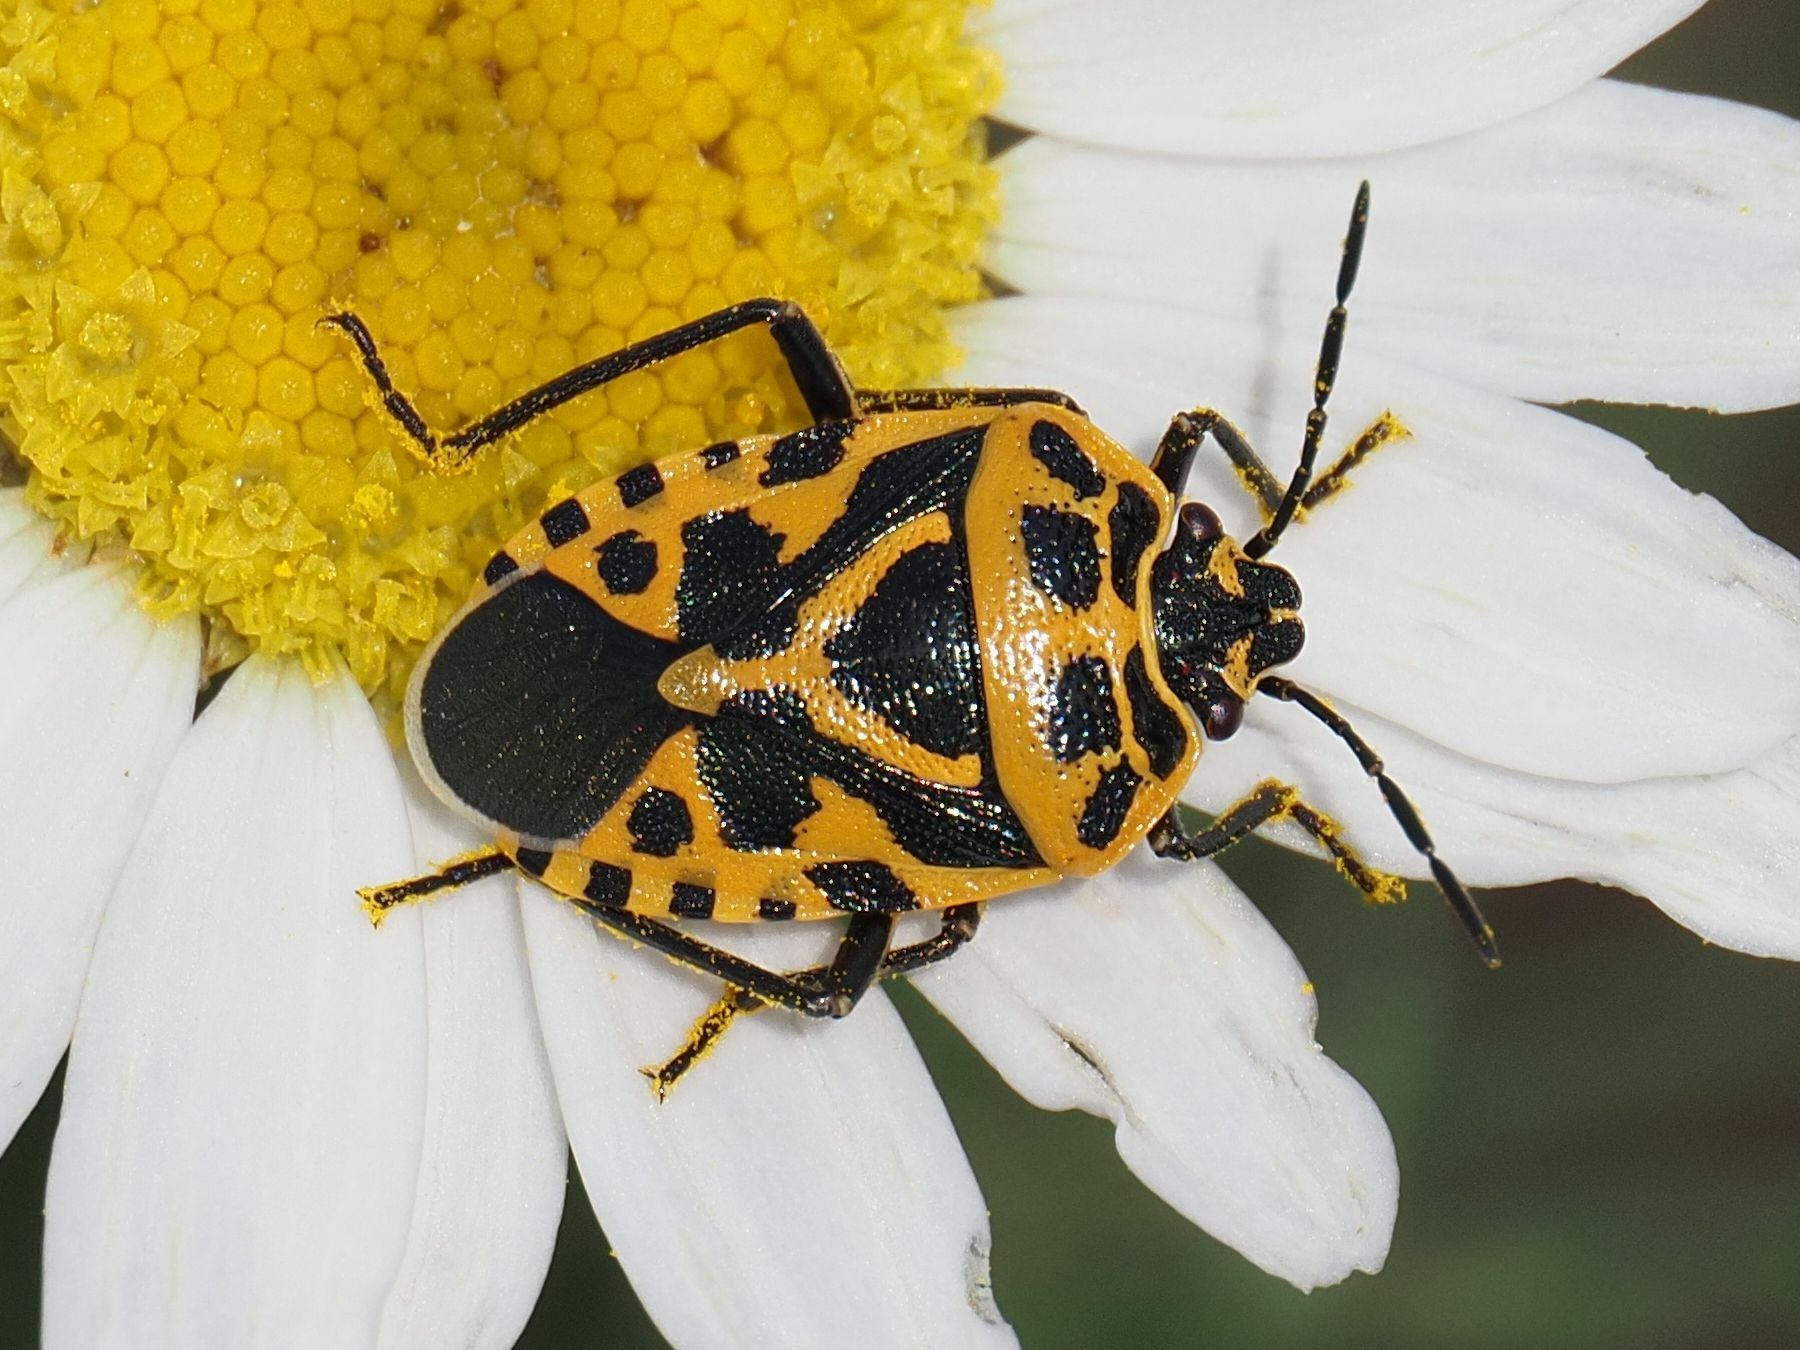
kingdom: Animalia
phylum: Arthropoda
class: Insecta
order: Hemiptera
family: Pentatomidae
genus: Eurydema
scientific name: Eurydema ventralis
